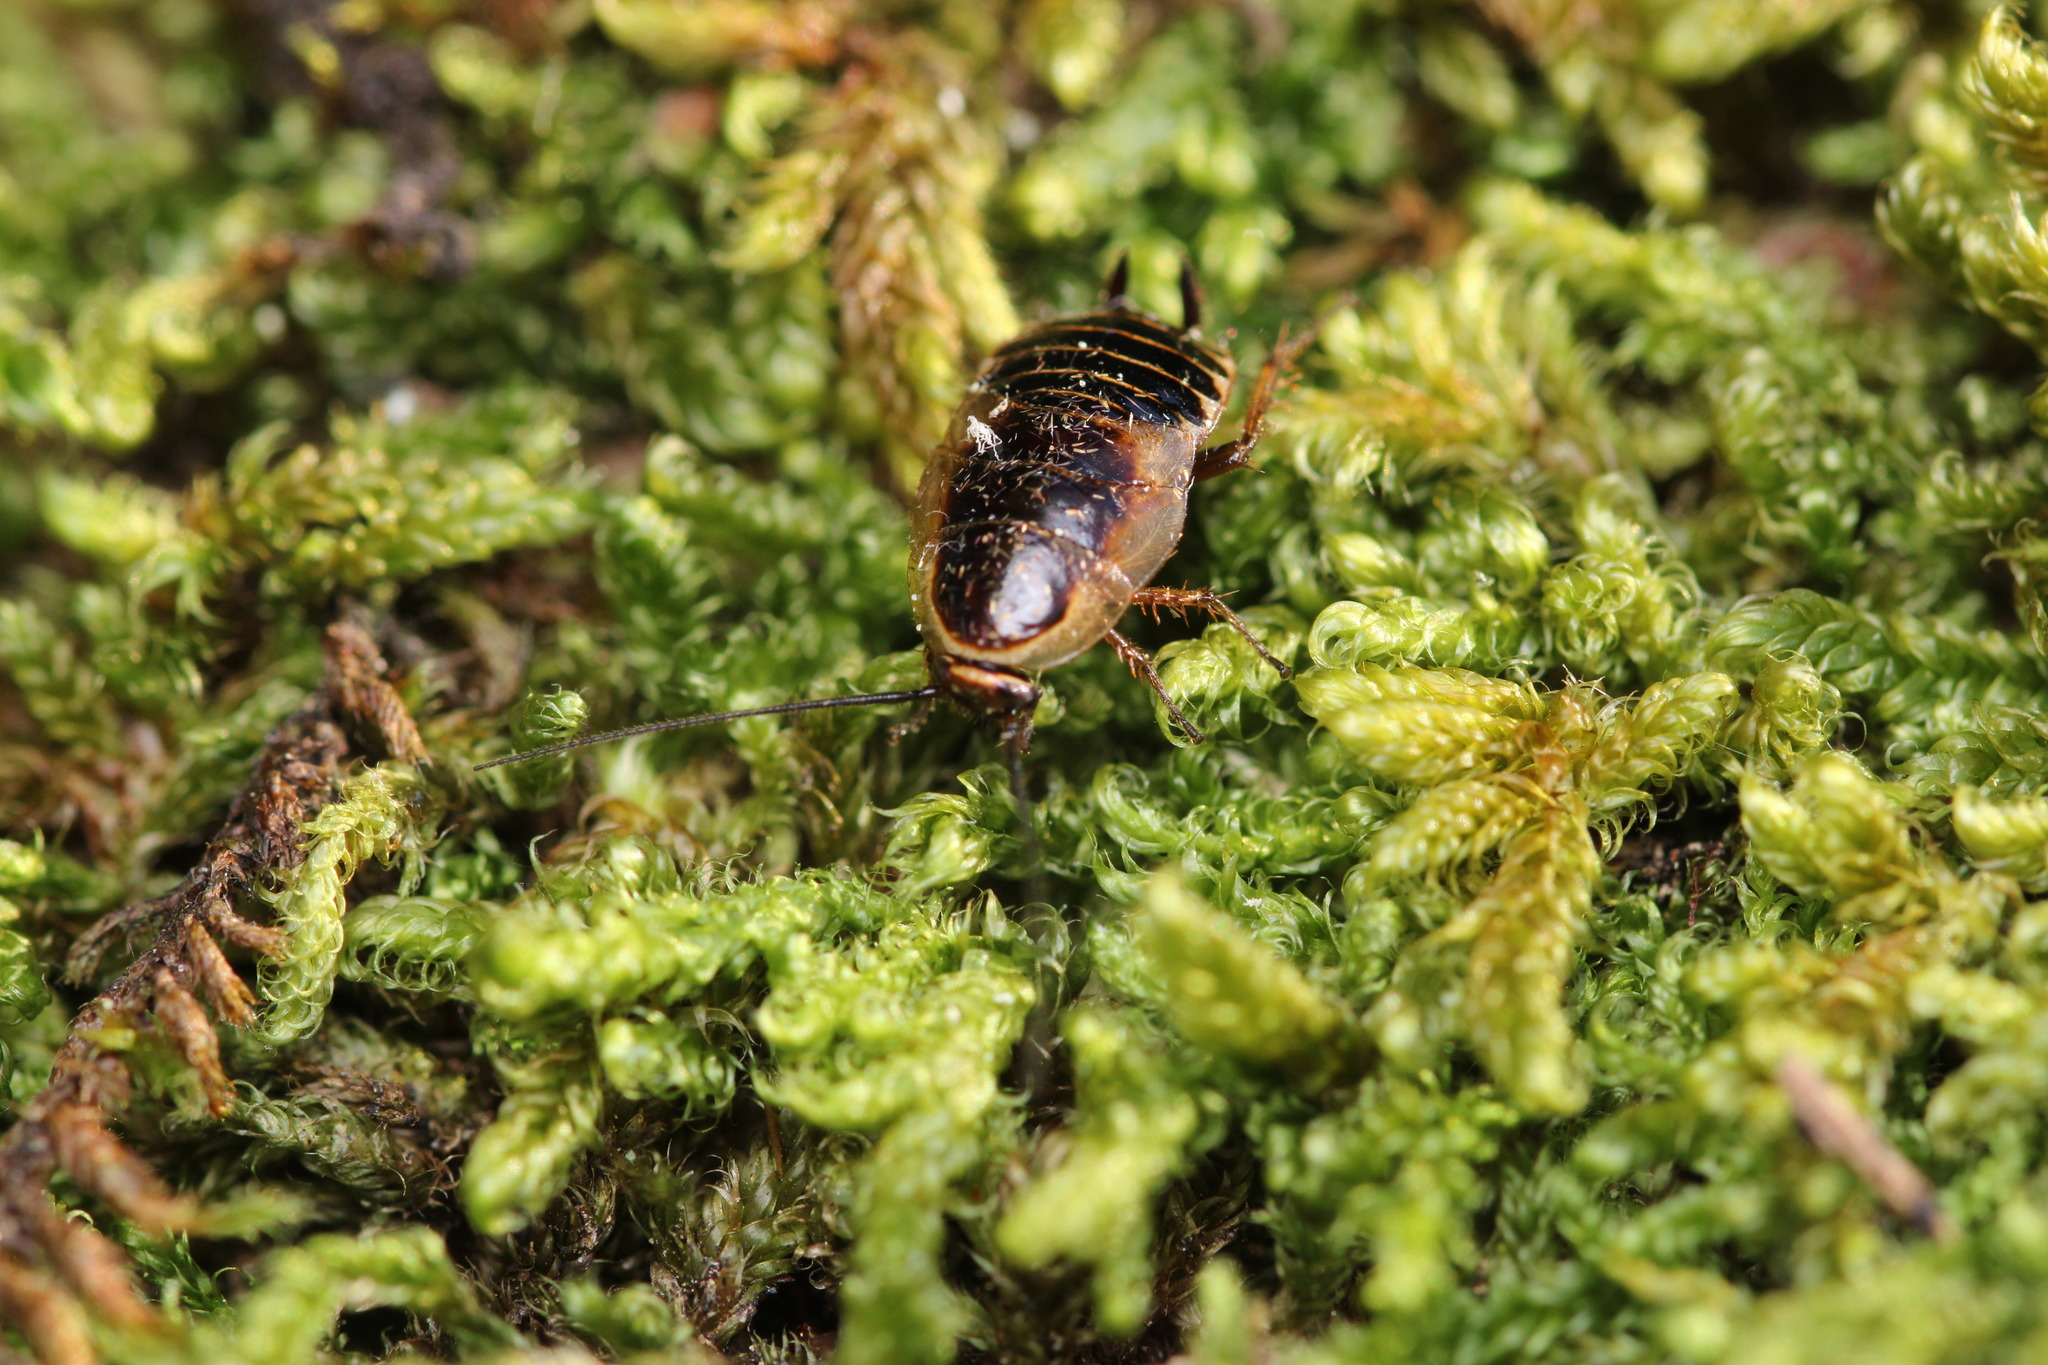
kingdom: Animalia
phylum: Arthropoda
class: Insecta
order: Blattodea
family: Ectobiidae
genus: Ectobius
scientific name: Ectobius sylvestris
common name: Forest cockroach
